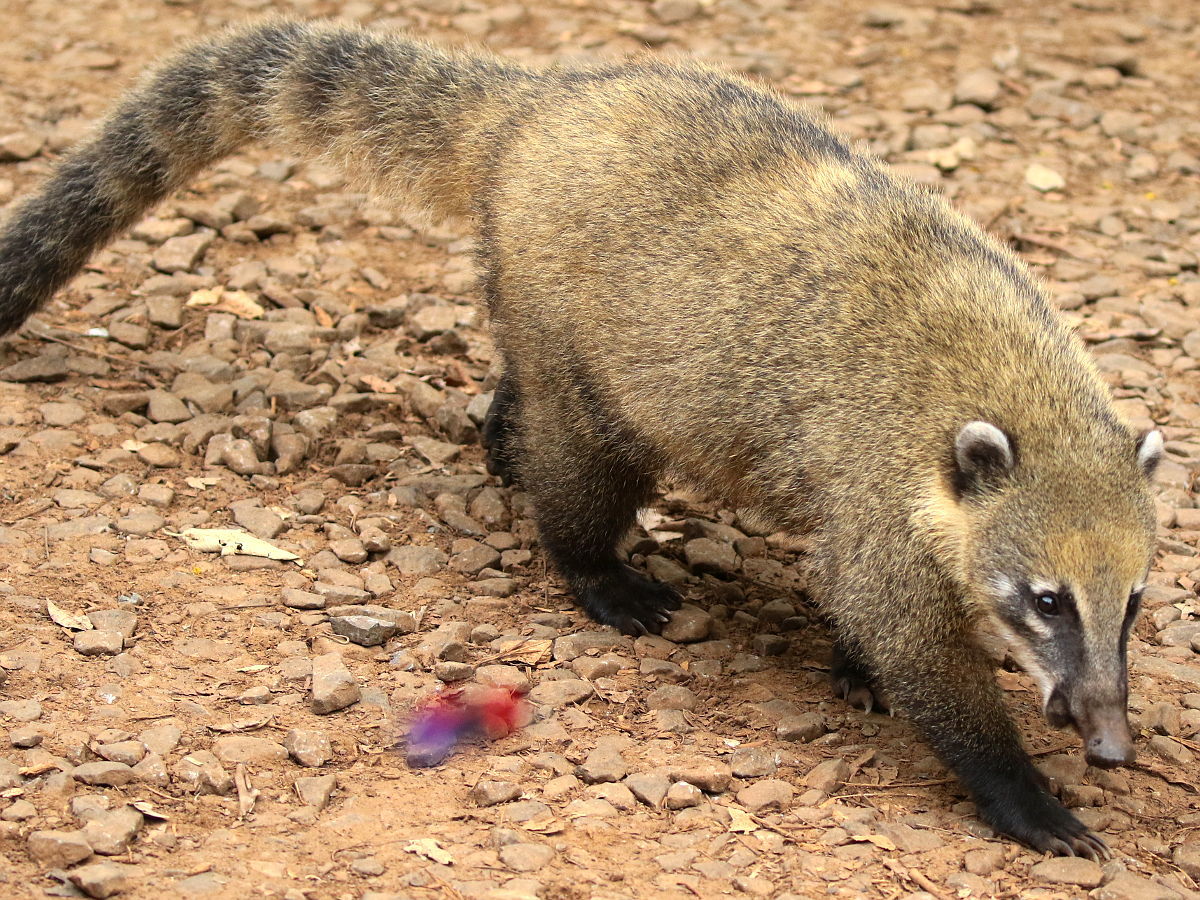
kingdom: Animalia
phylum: Chordata
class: Mammalia
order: Carnivora
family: Procyonidae
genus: Nasua
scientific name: Nasua nasua
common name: South american coati
